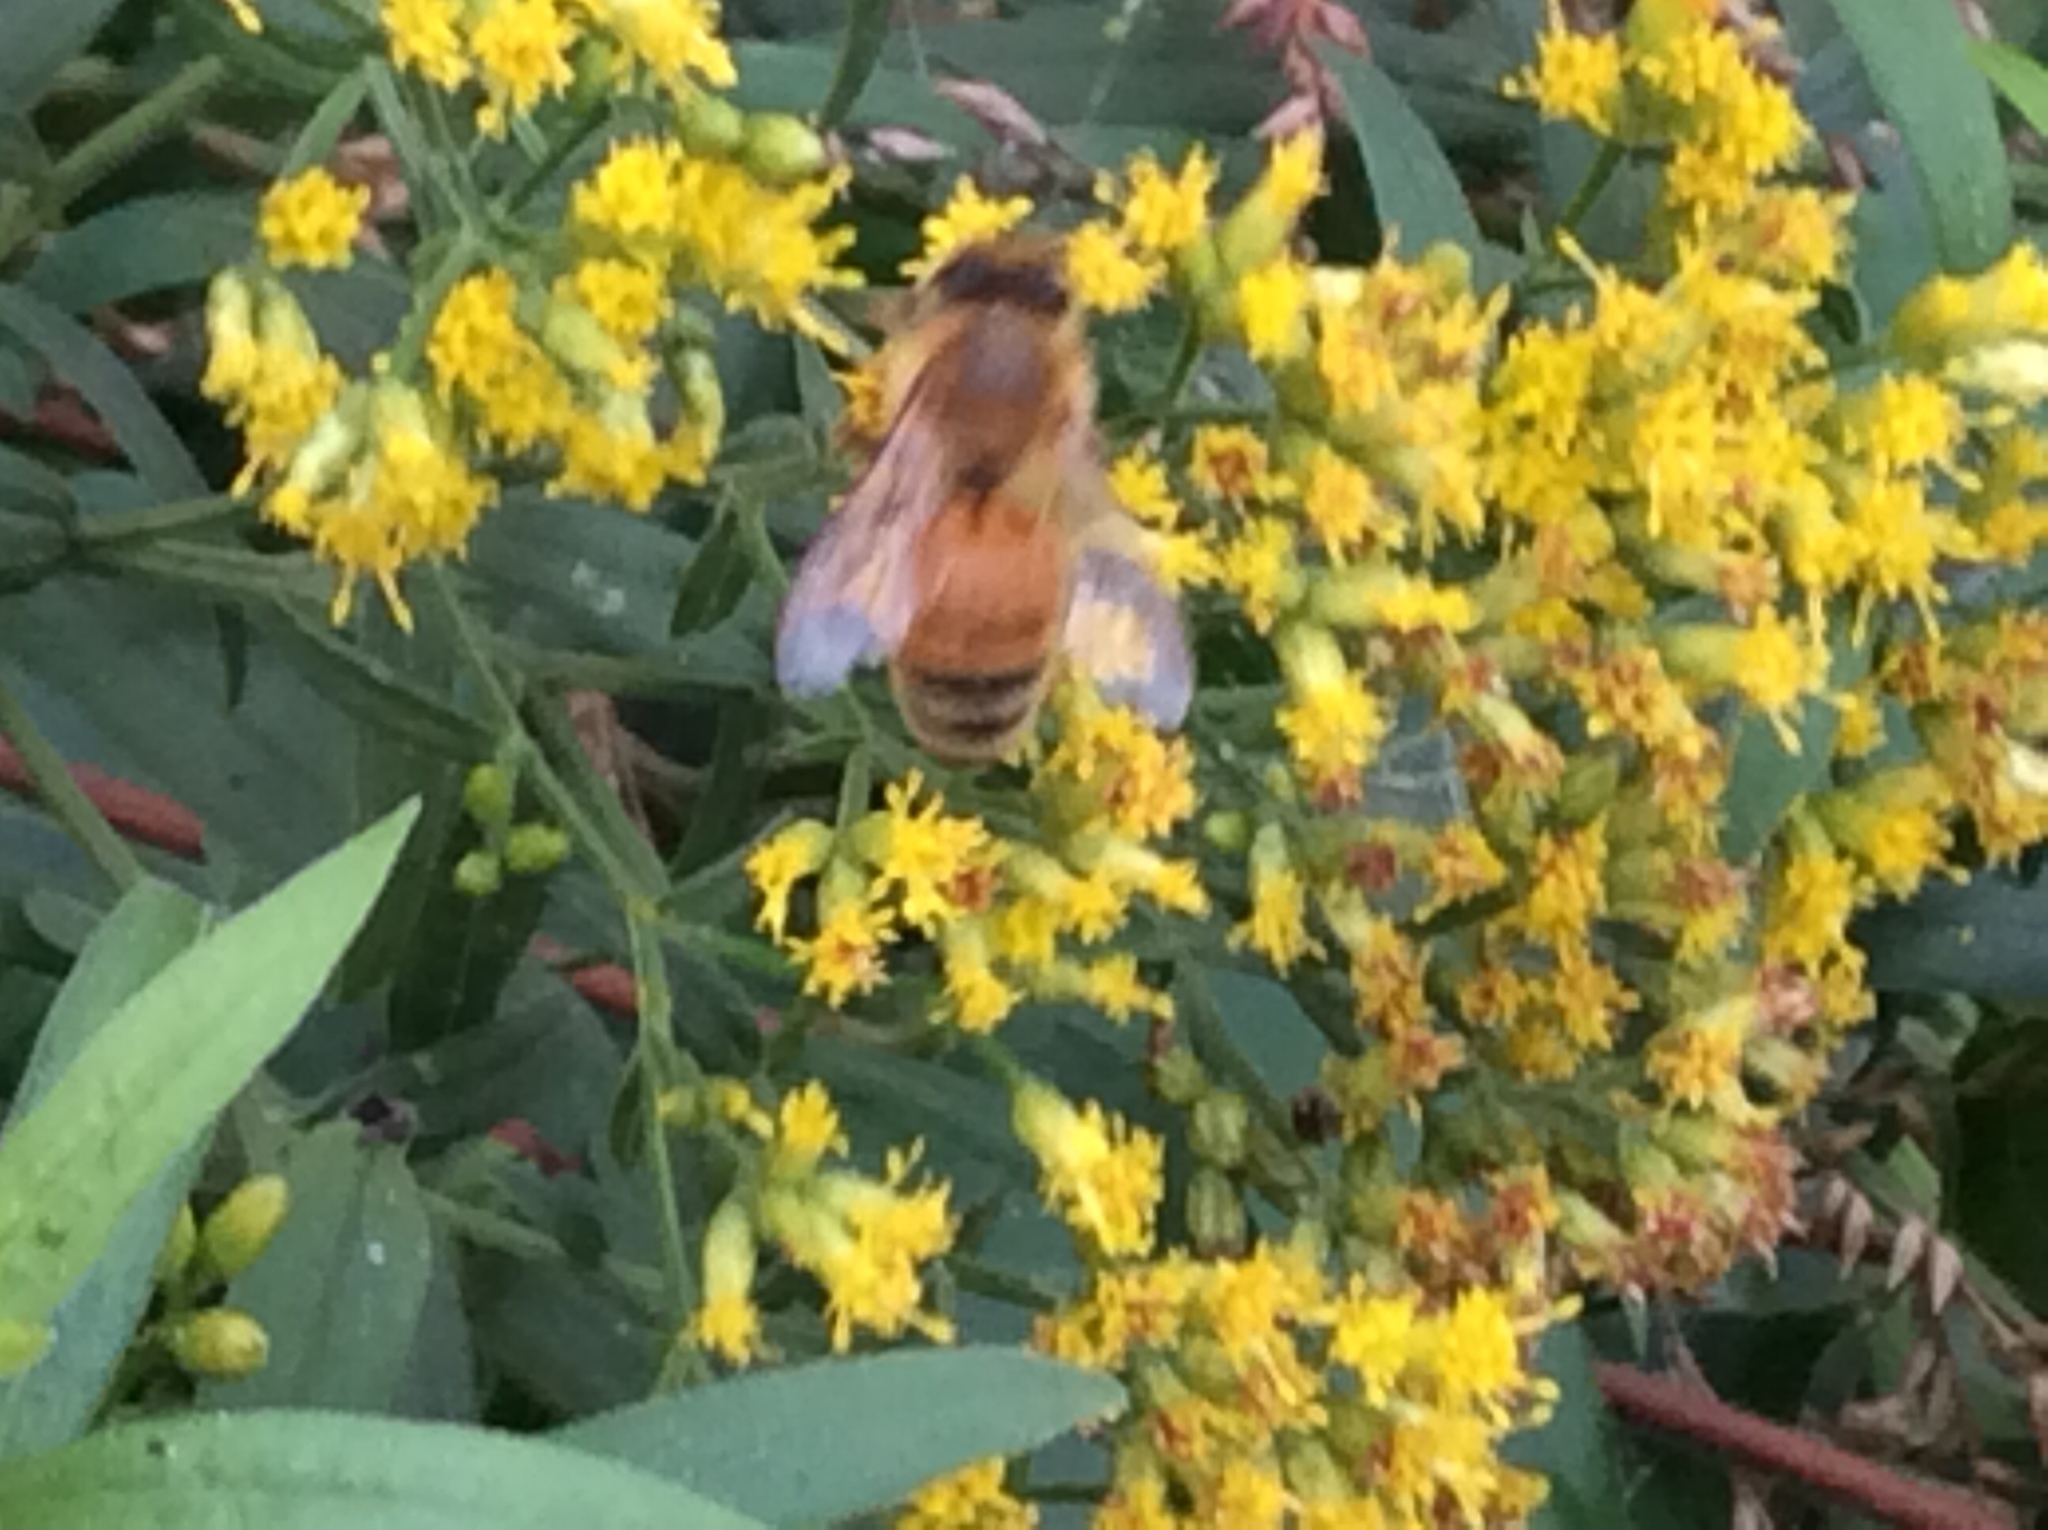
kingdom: Animalia
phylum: Arthropoda
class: Insecta
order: Hymenoptera
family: Apidae
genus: Apis
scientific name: Apis mellifera
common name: Honey bee
